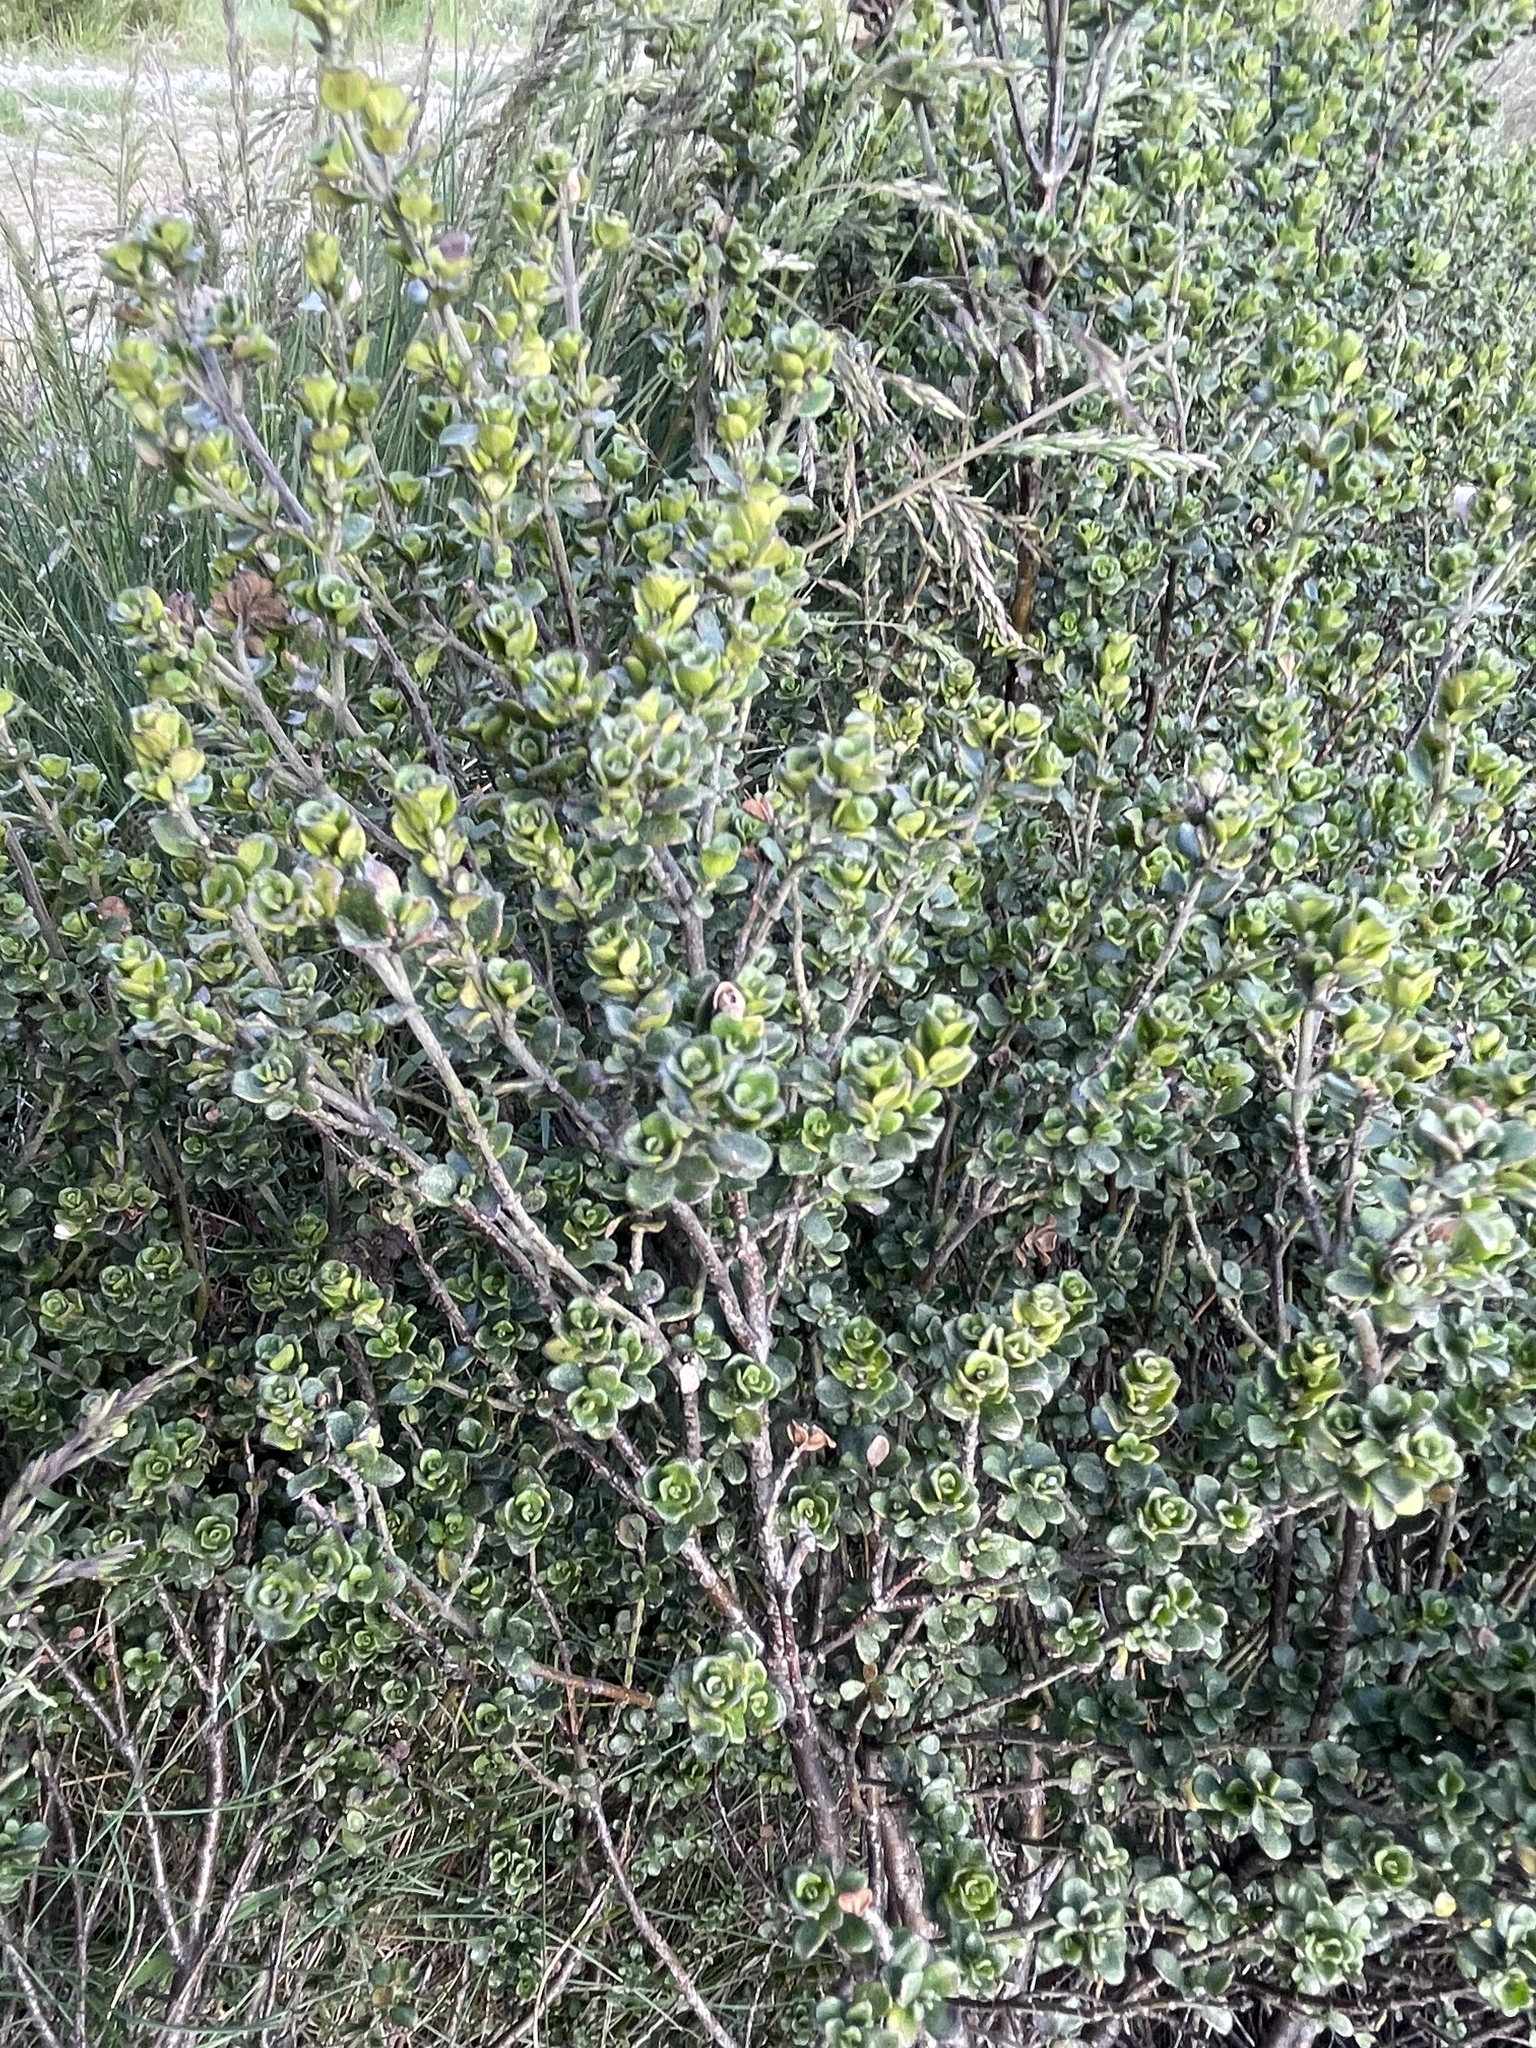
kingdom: Plantae
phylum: Tracheophyta
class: Magnoliopsida
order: Lamiales
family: Lamiaceae
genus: Prostanthera
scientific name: Prostanthera cuneata
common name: Alpine mintbush
